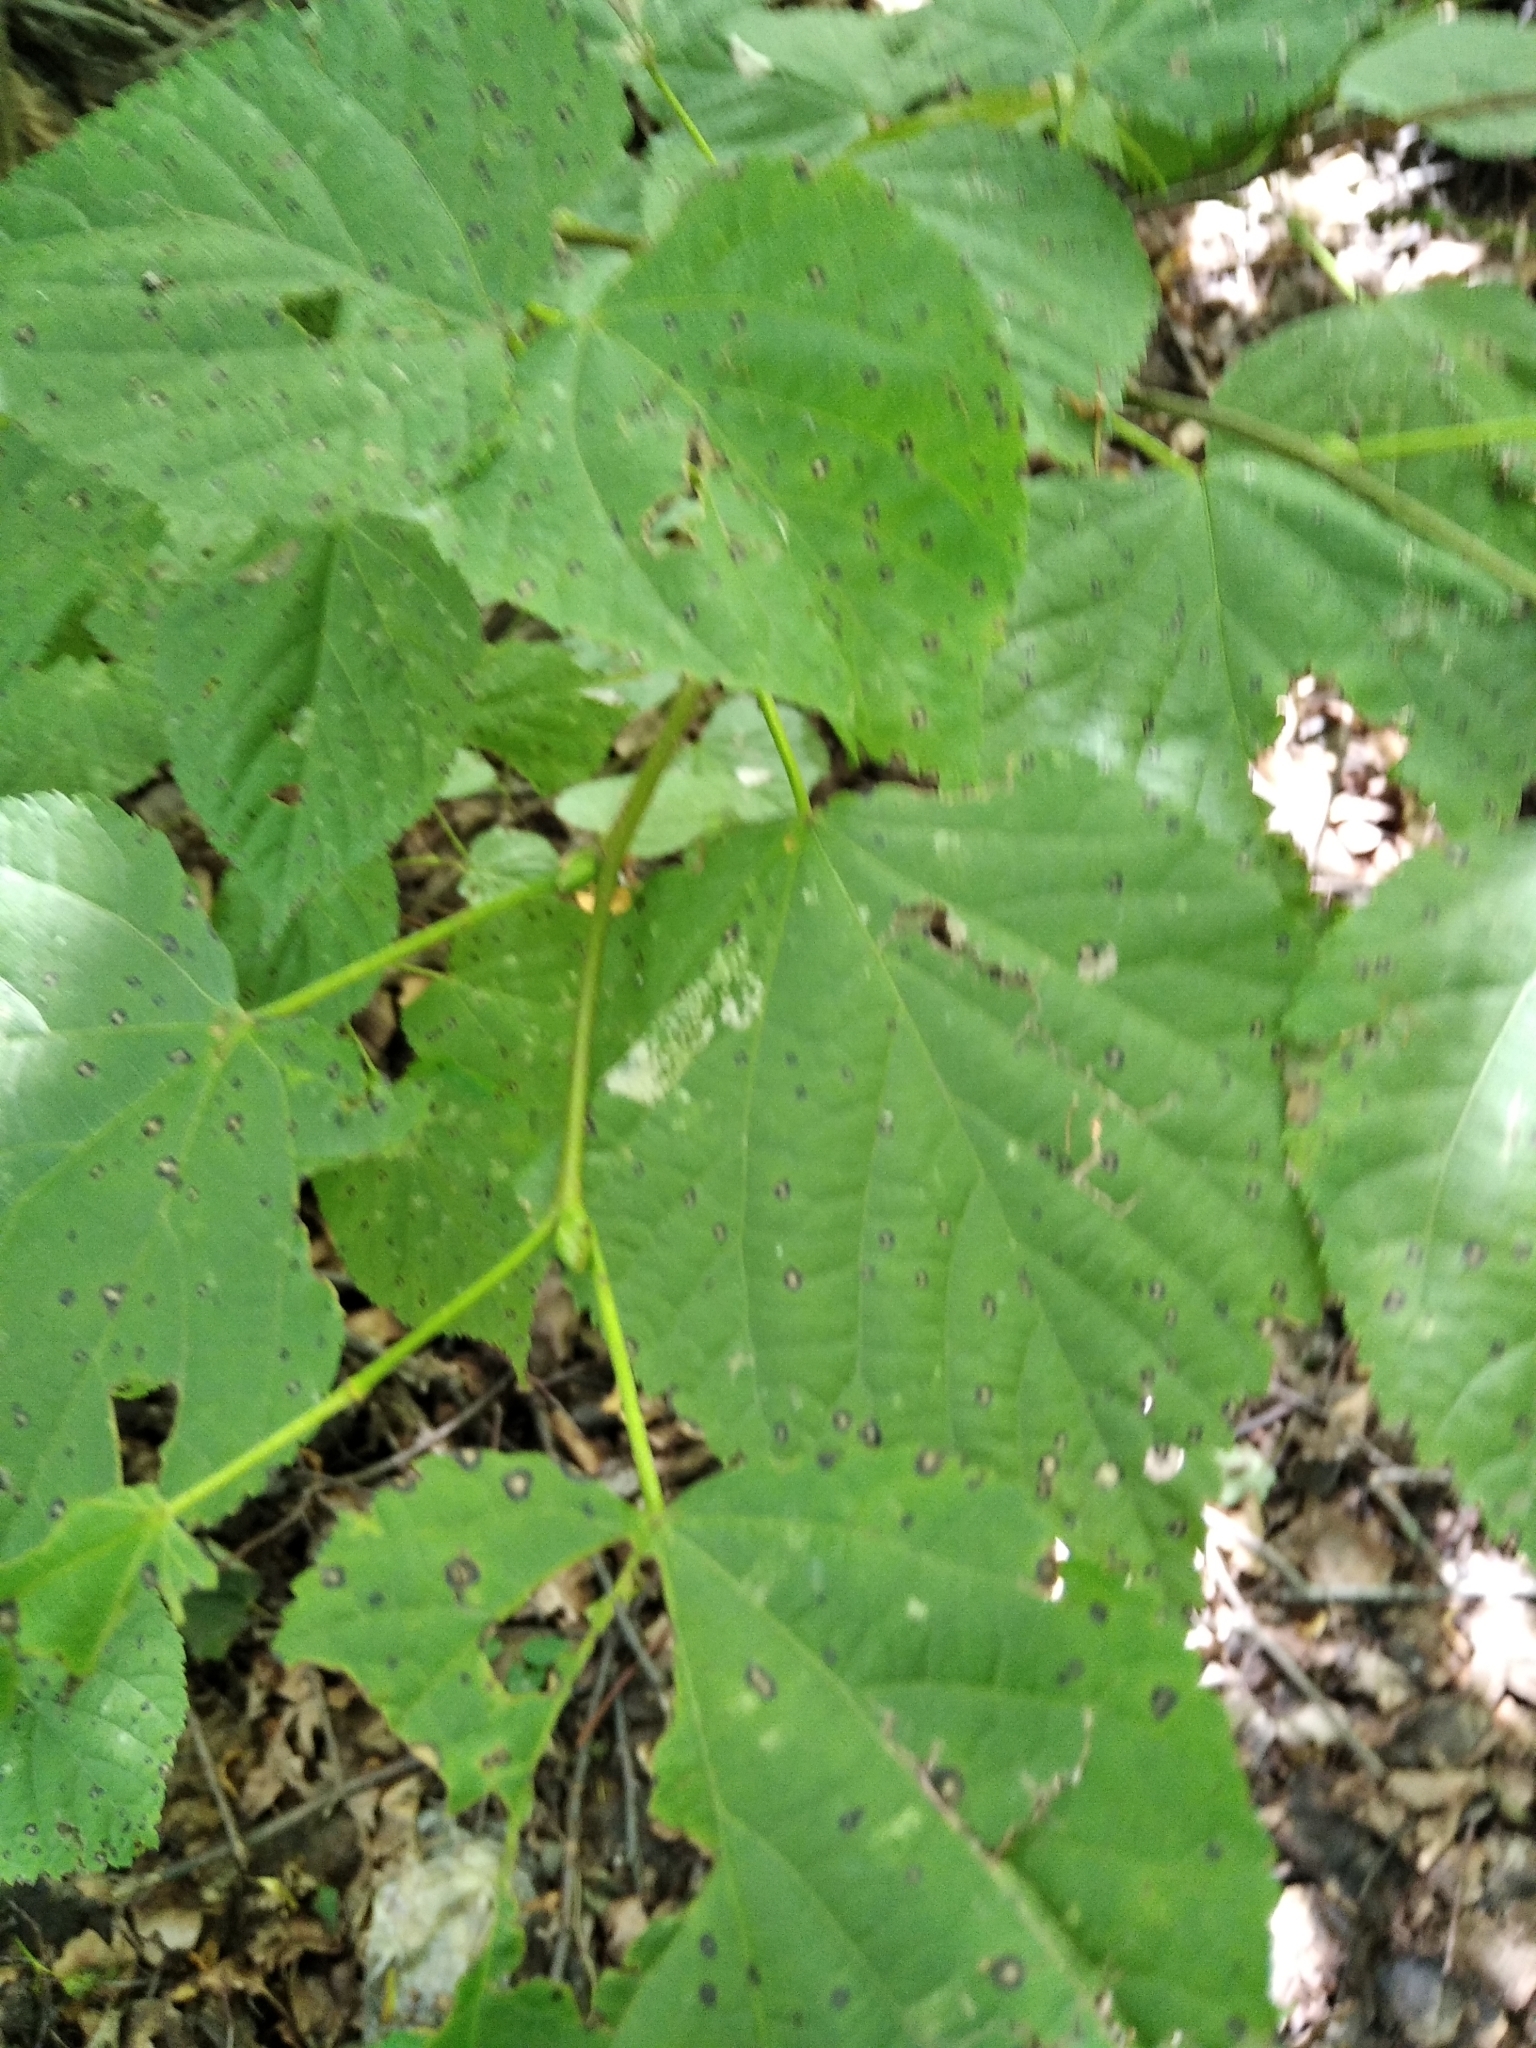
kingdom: Plantae
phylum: Tracheophyta
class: Magnoliopsida
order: Malvales
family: Malvaceae
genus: Tilia
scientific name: Tilia cordata
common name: Small-leaved lime
